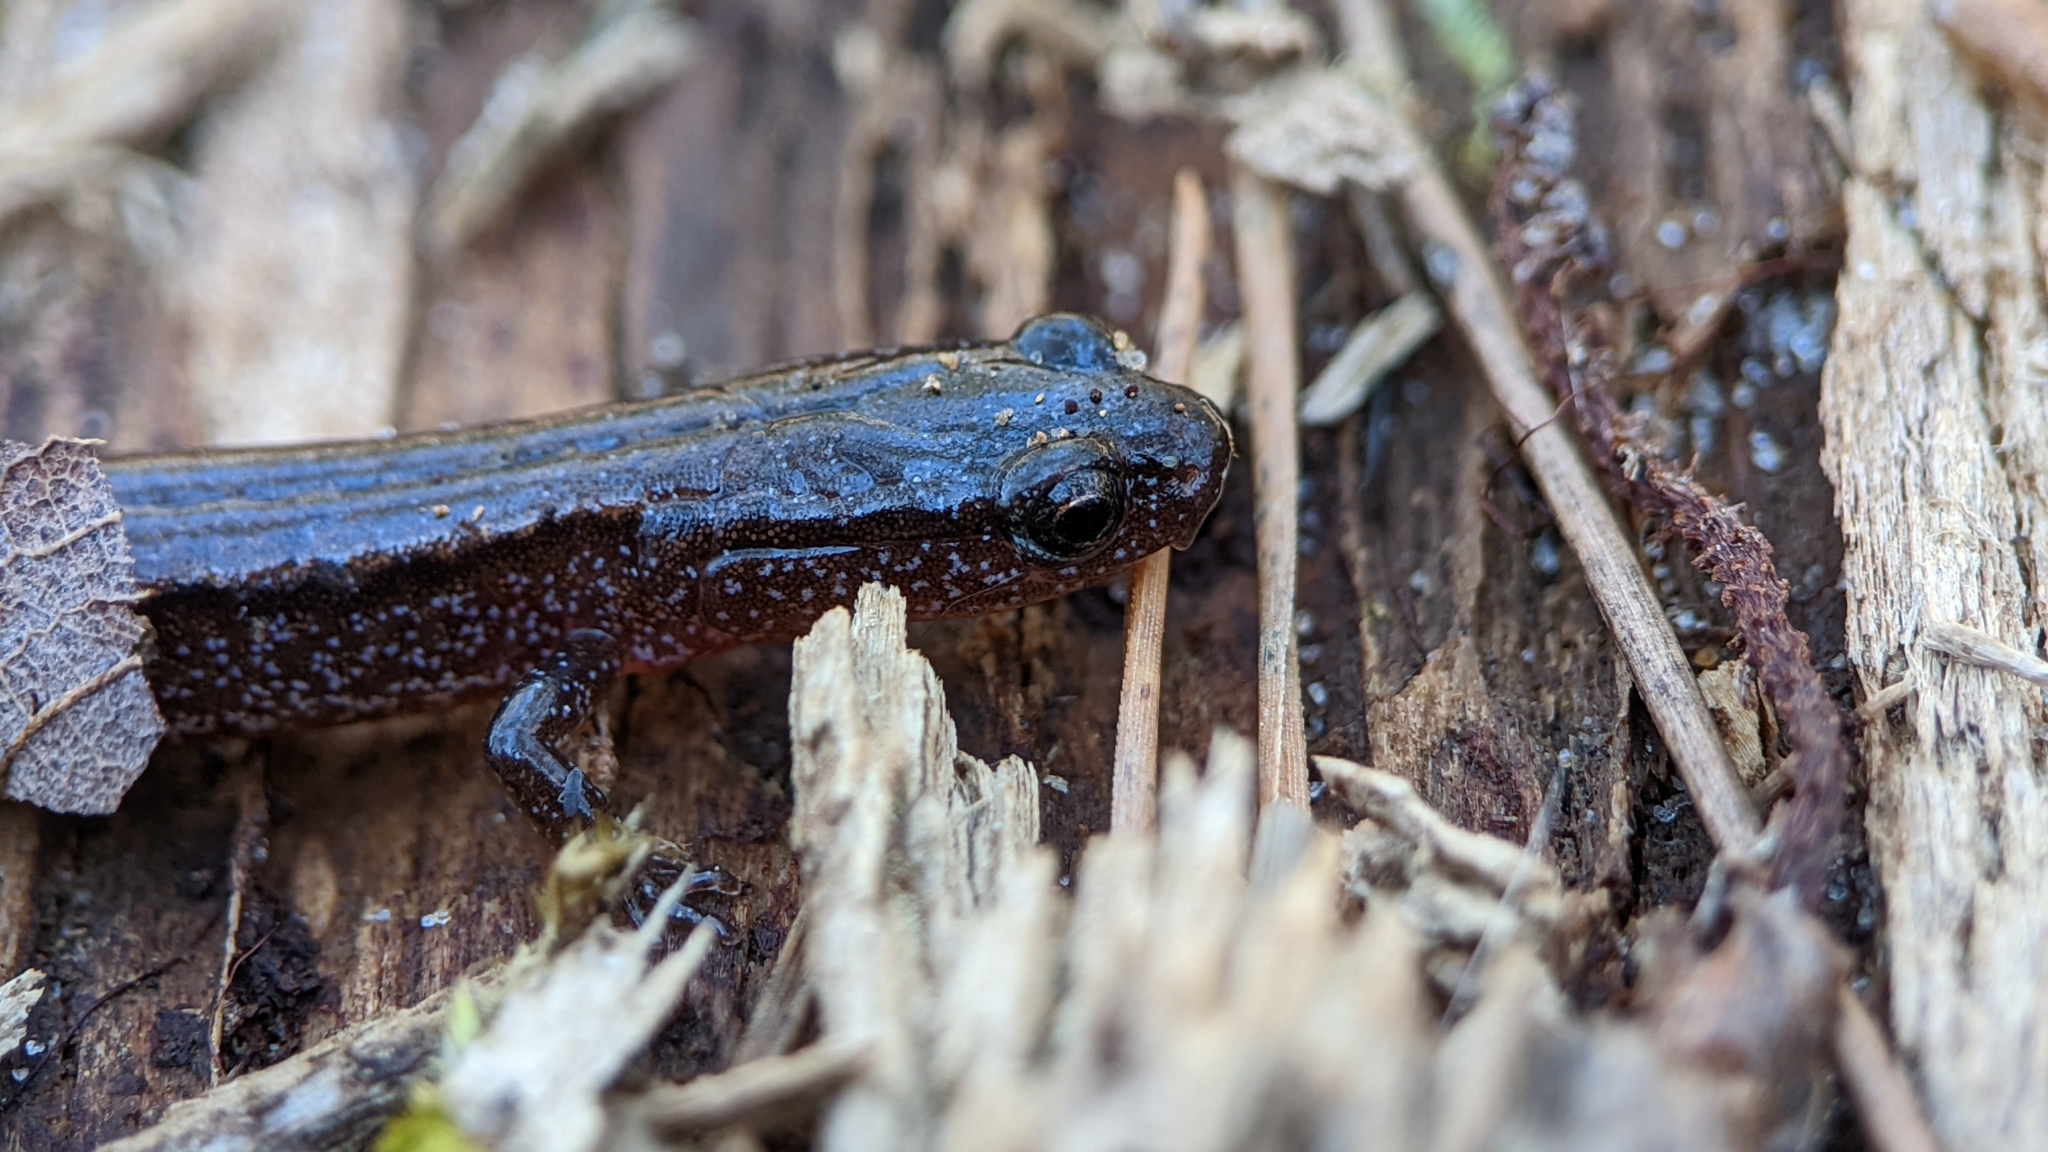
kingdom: Animalia
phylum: Chordata
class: Amphibia
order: Caudata
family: Plethodontidae
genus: Eurycea
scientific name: Eurycea paludicola
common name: Western dwarf salamander
